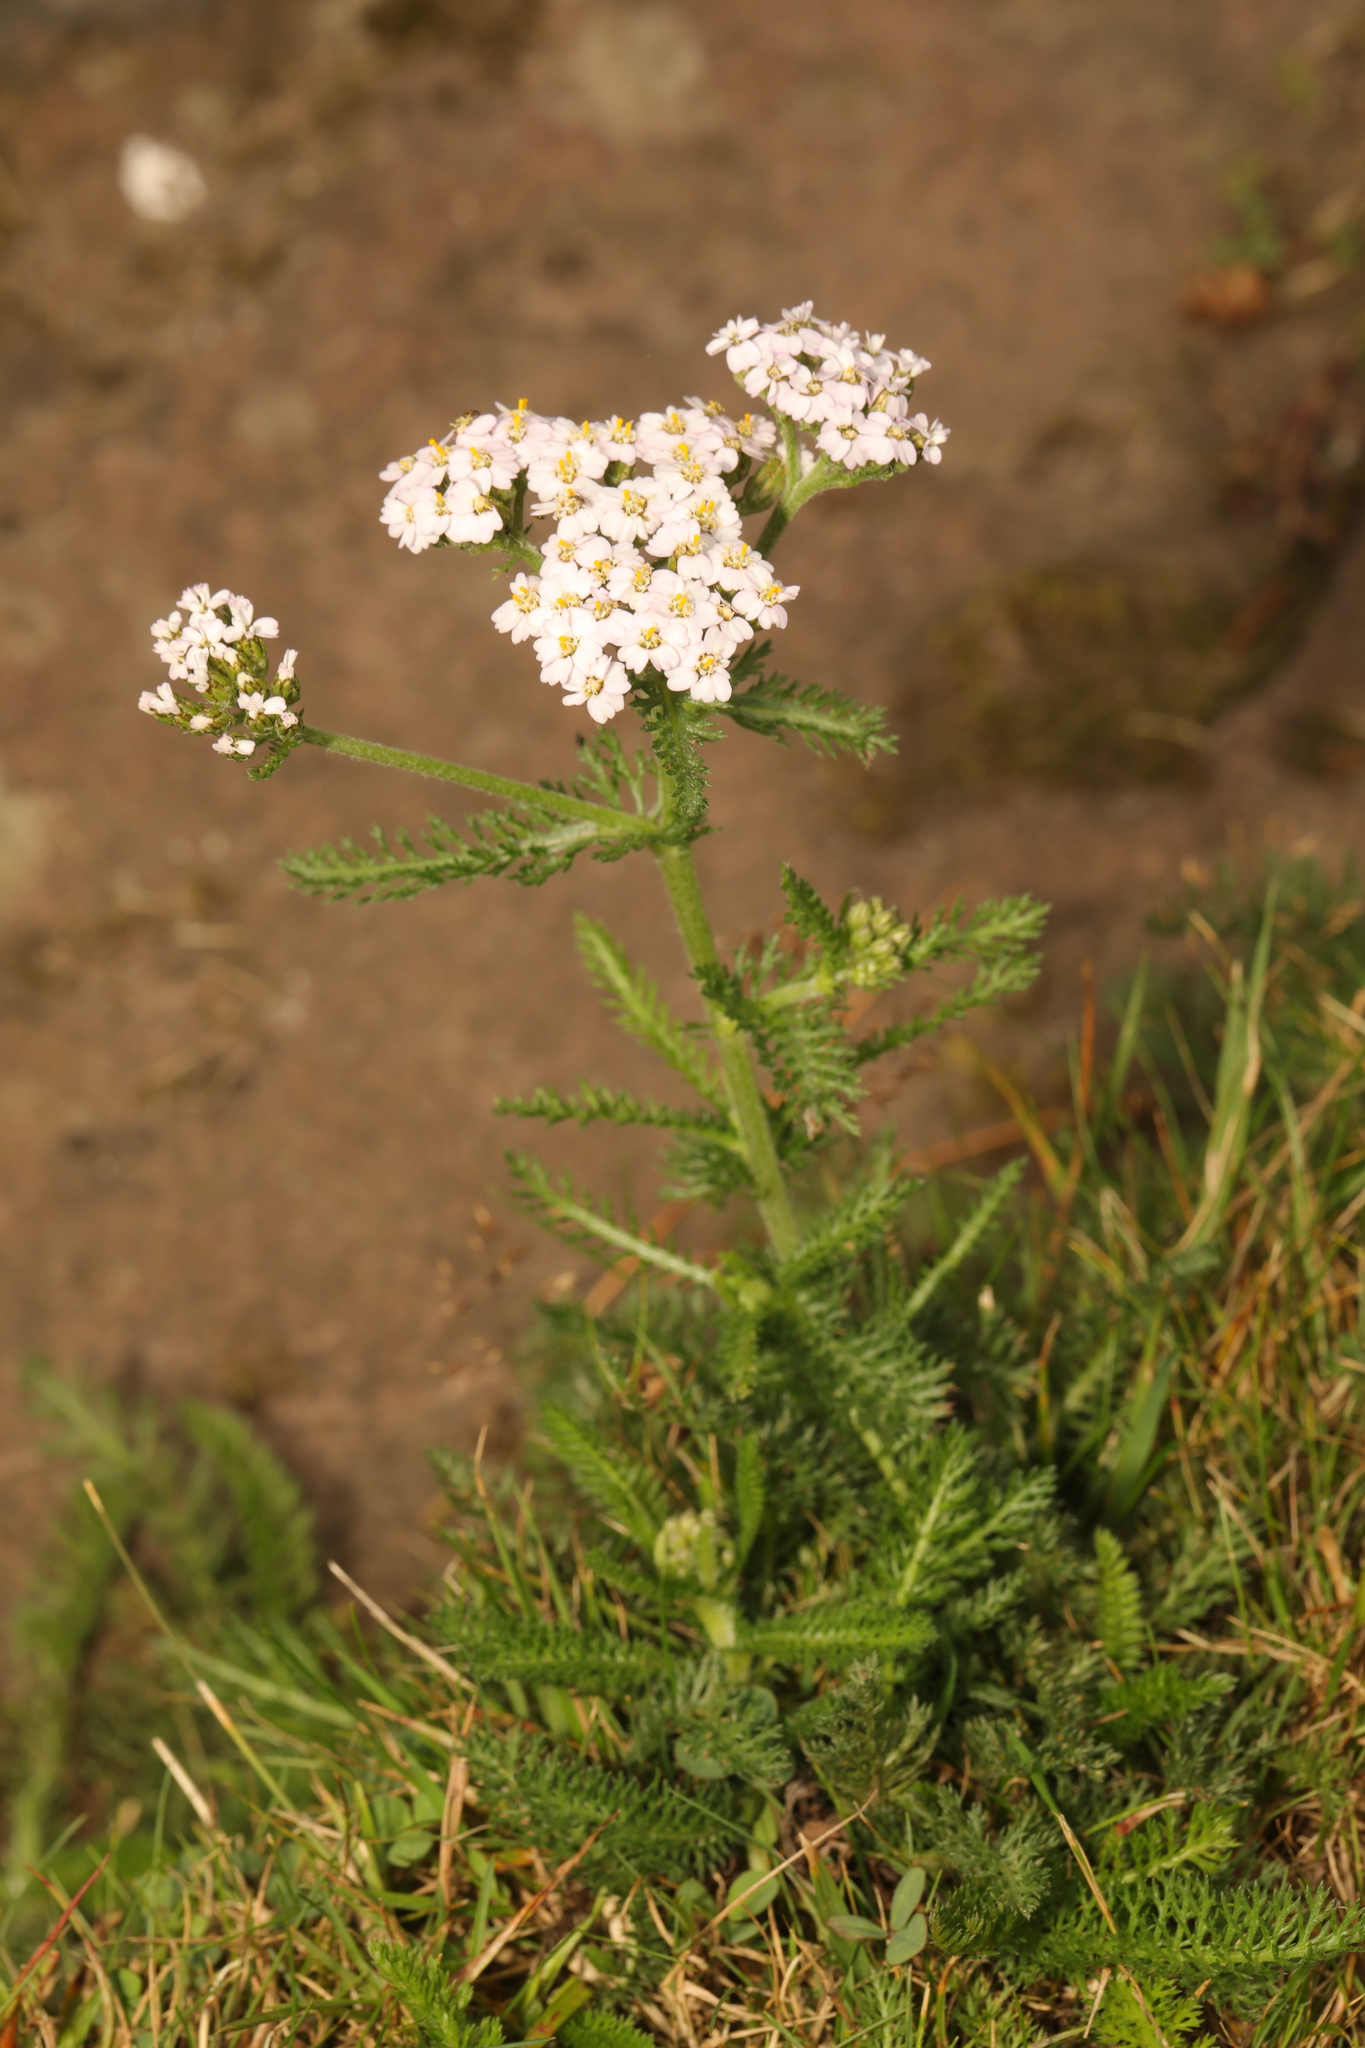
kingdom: Plantae
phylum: Tracheophyta
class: Magnoliopsida
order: Asterales
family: Asteraceae
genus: Achillea
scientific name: Achillea millefolium
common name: Yarrow
